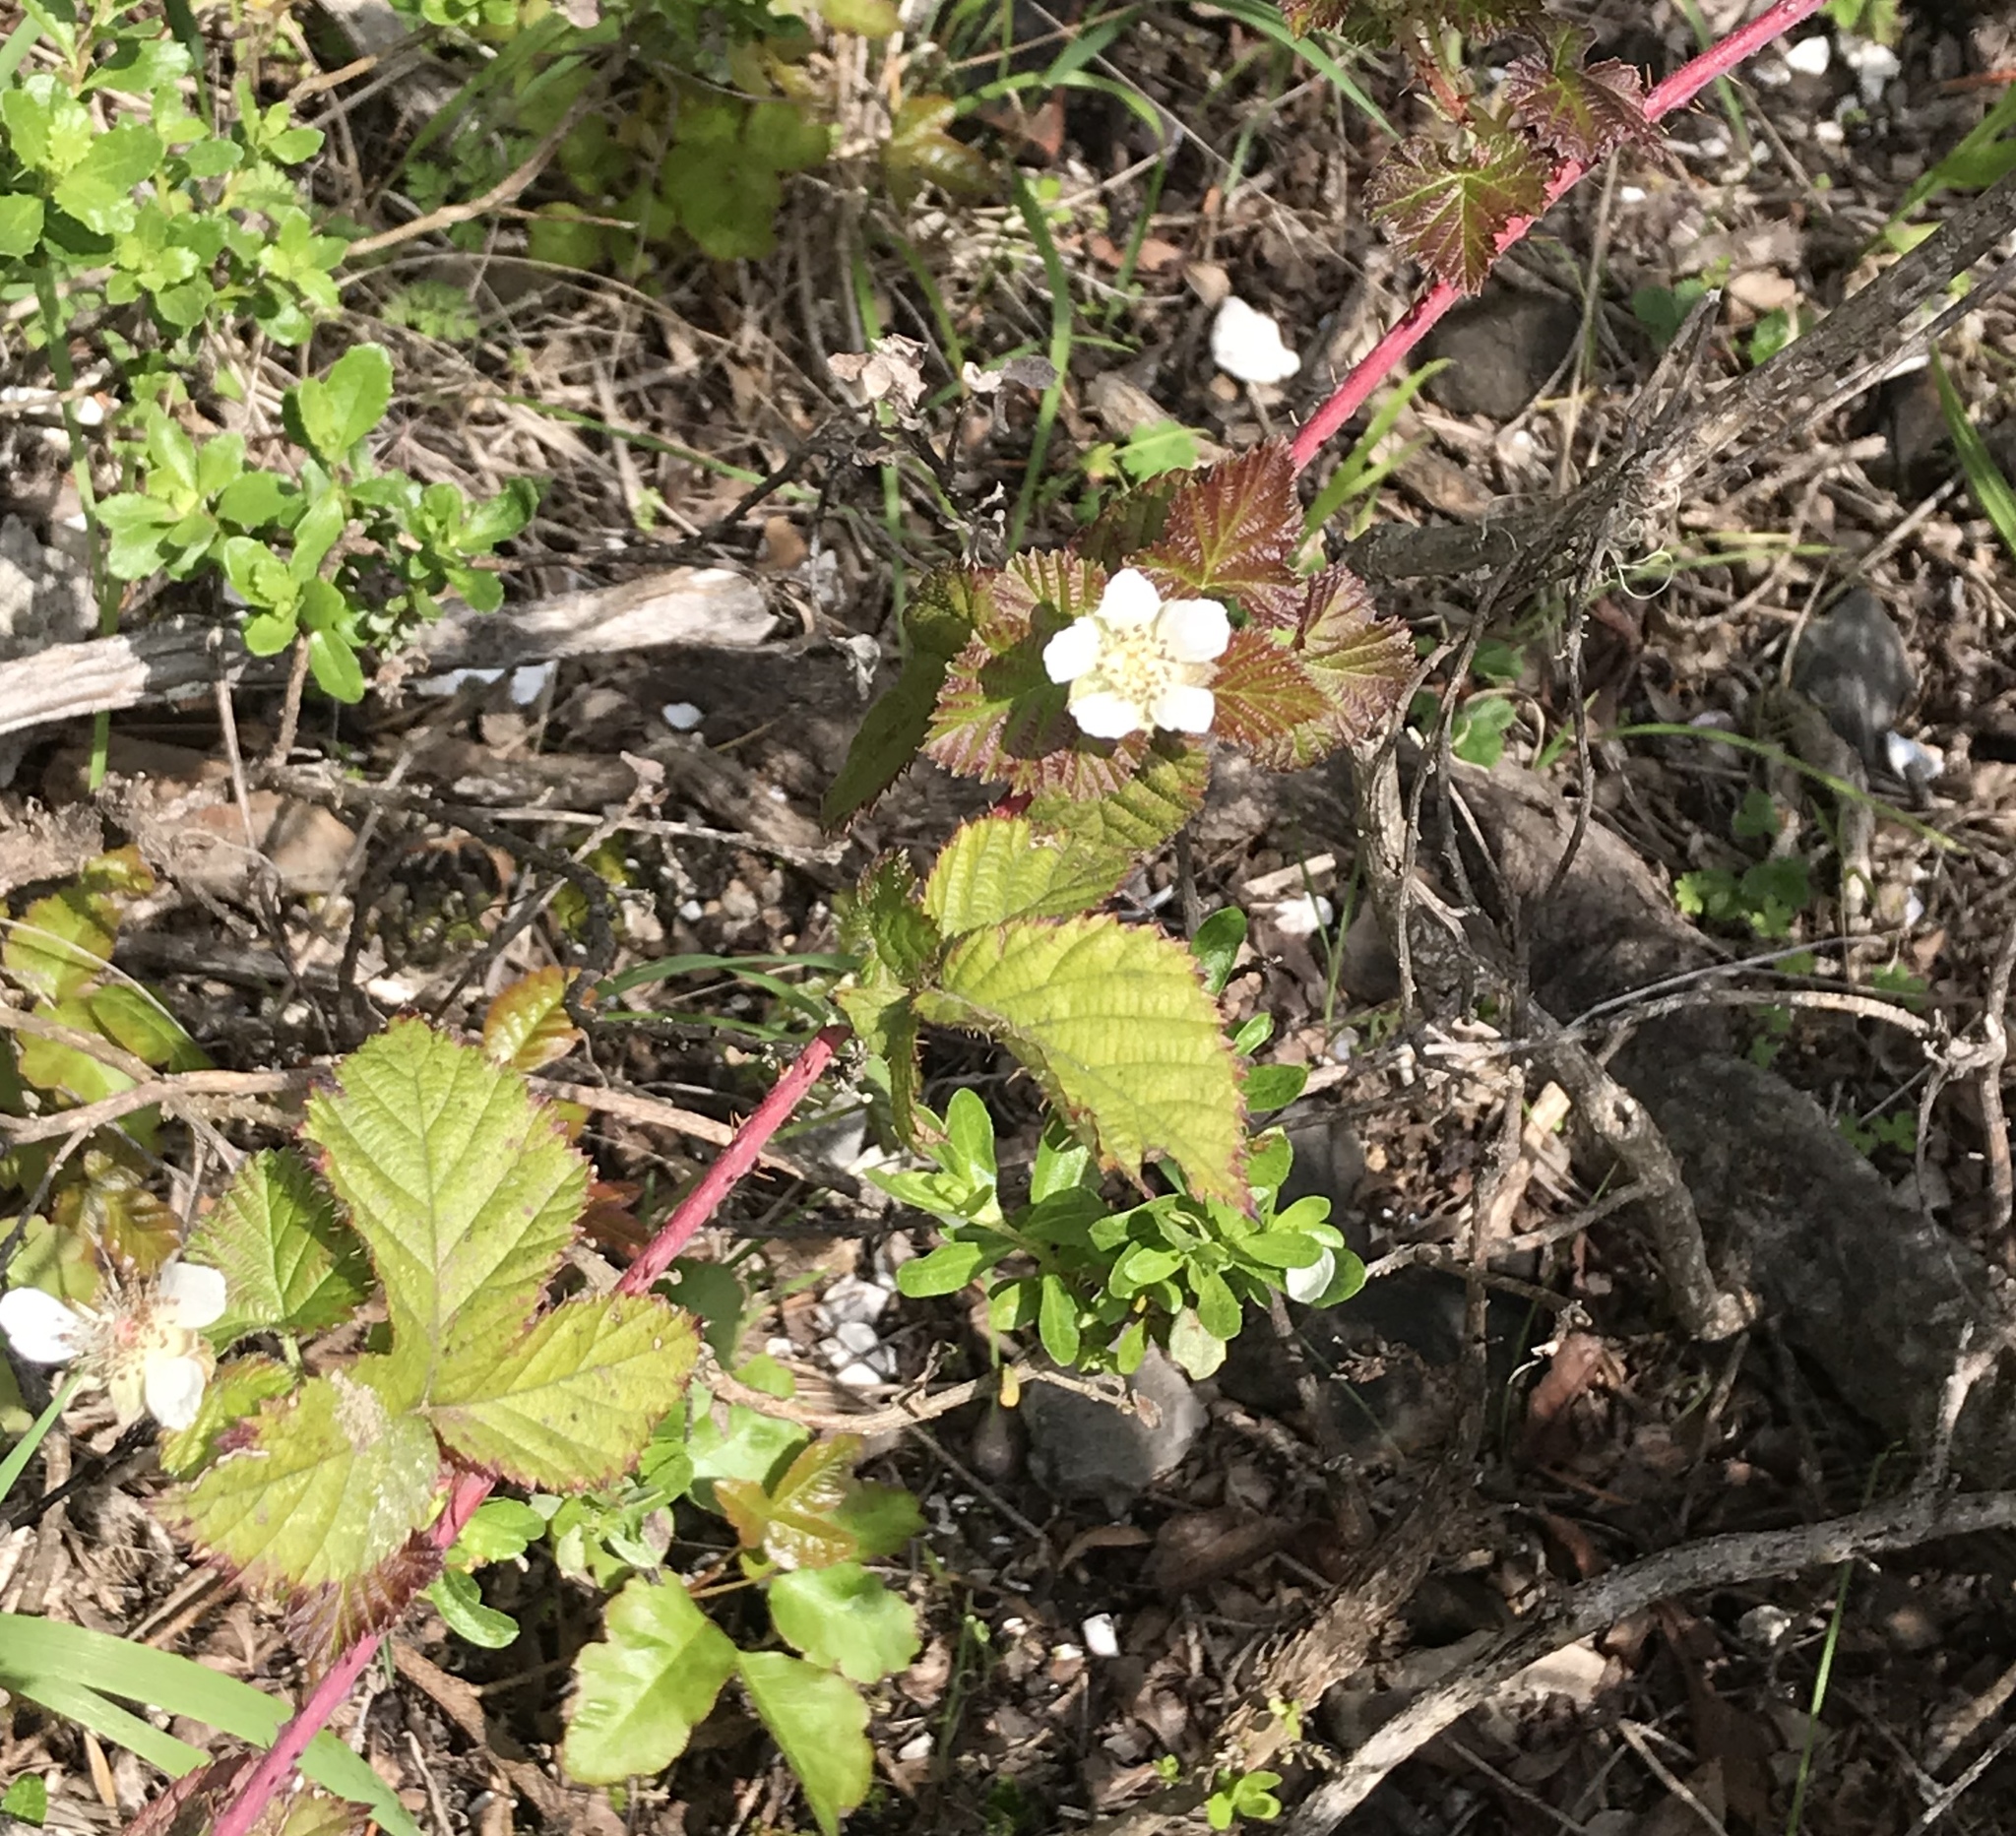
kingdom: Plantae
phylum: Tracheophyta
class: Magnoliopsida
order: Rosales
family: Rosaceae
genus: Rubus
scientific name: Rubus ursinus
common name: Pacific blackberry
